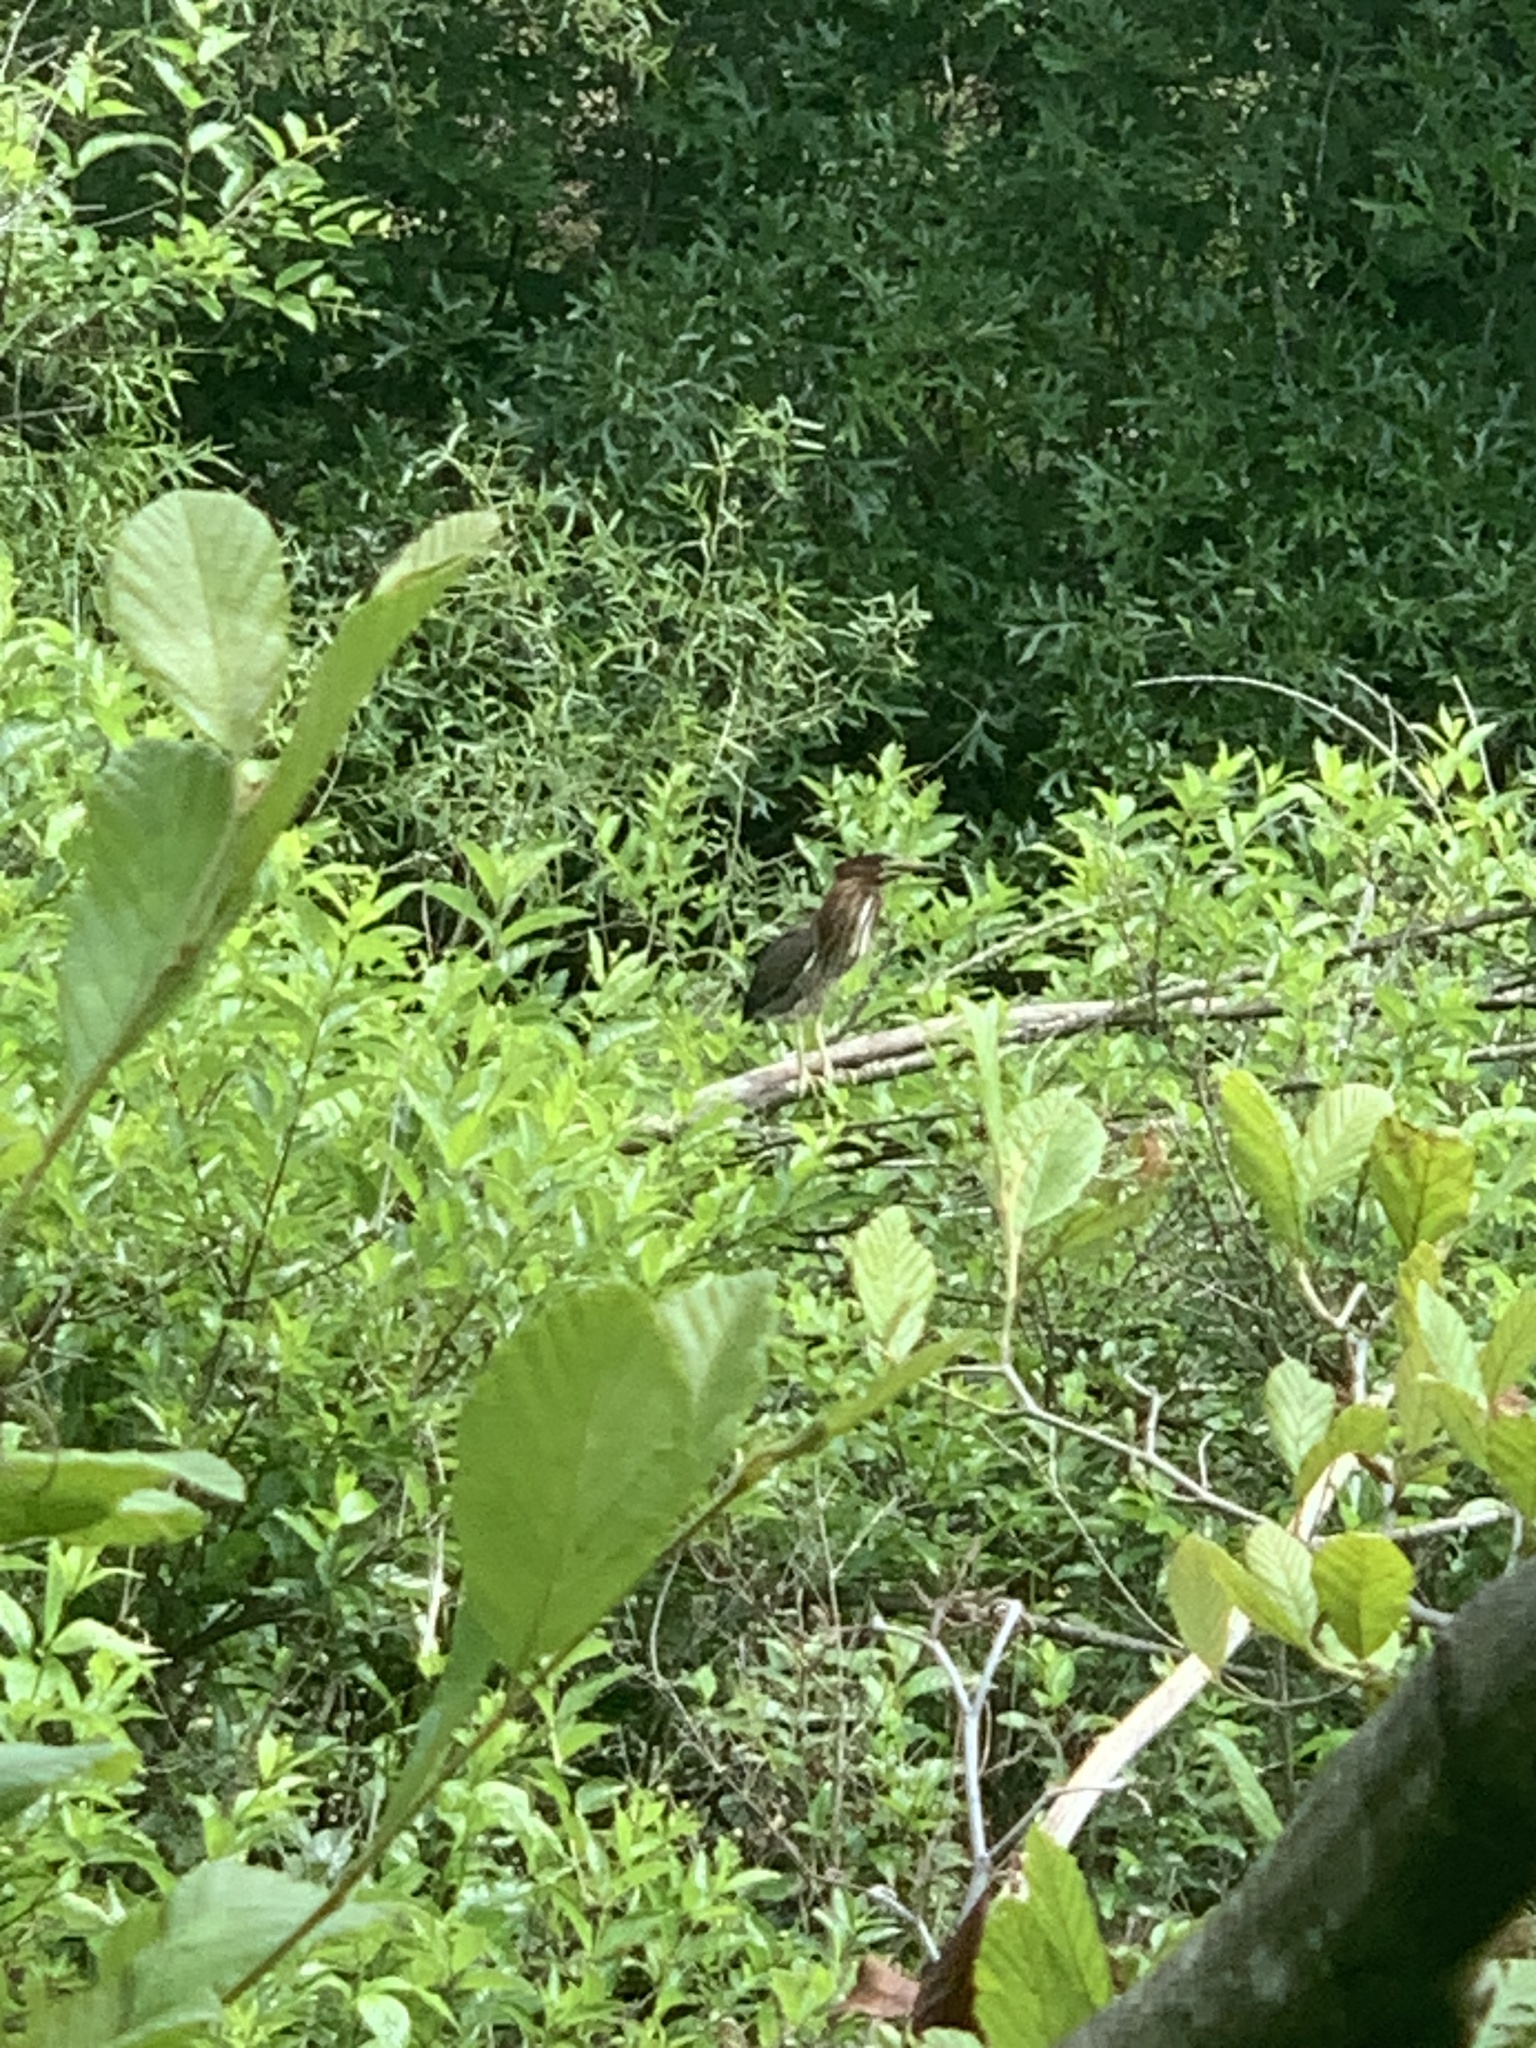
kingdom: Animalia
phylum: Chordata
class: Aves
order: Pelecaniformes
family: Ardeidae
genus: Butorides
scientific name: Butorides virescens
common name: Green heron
